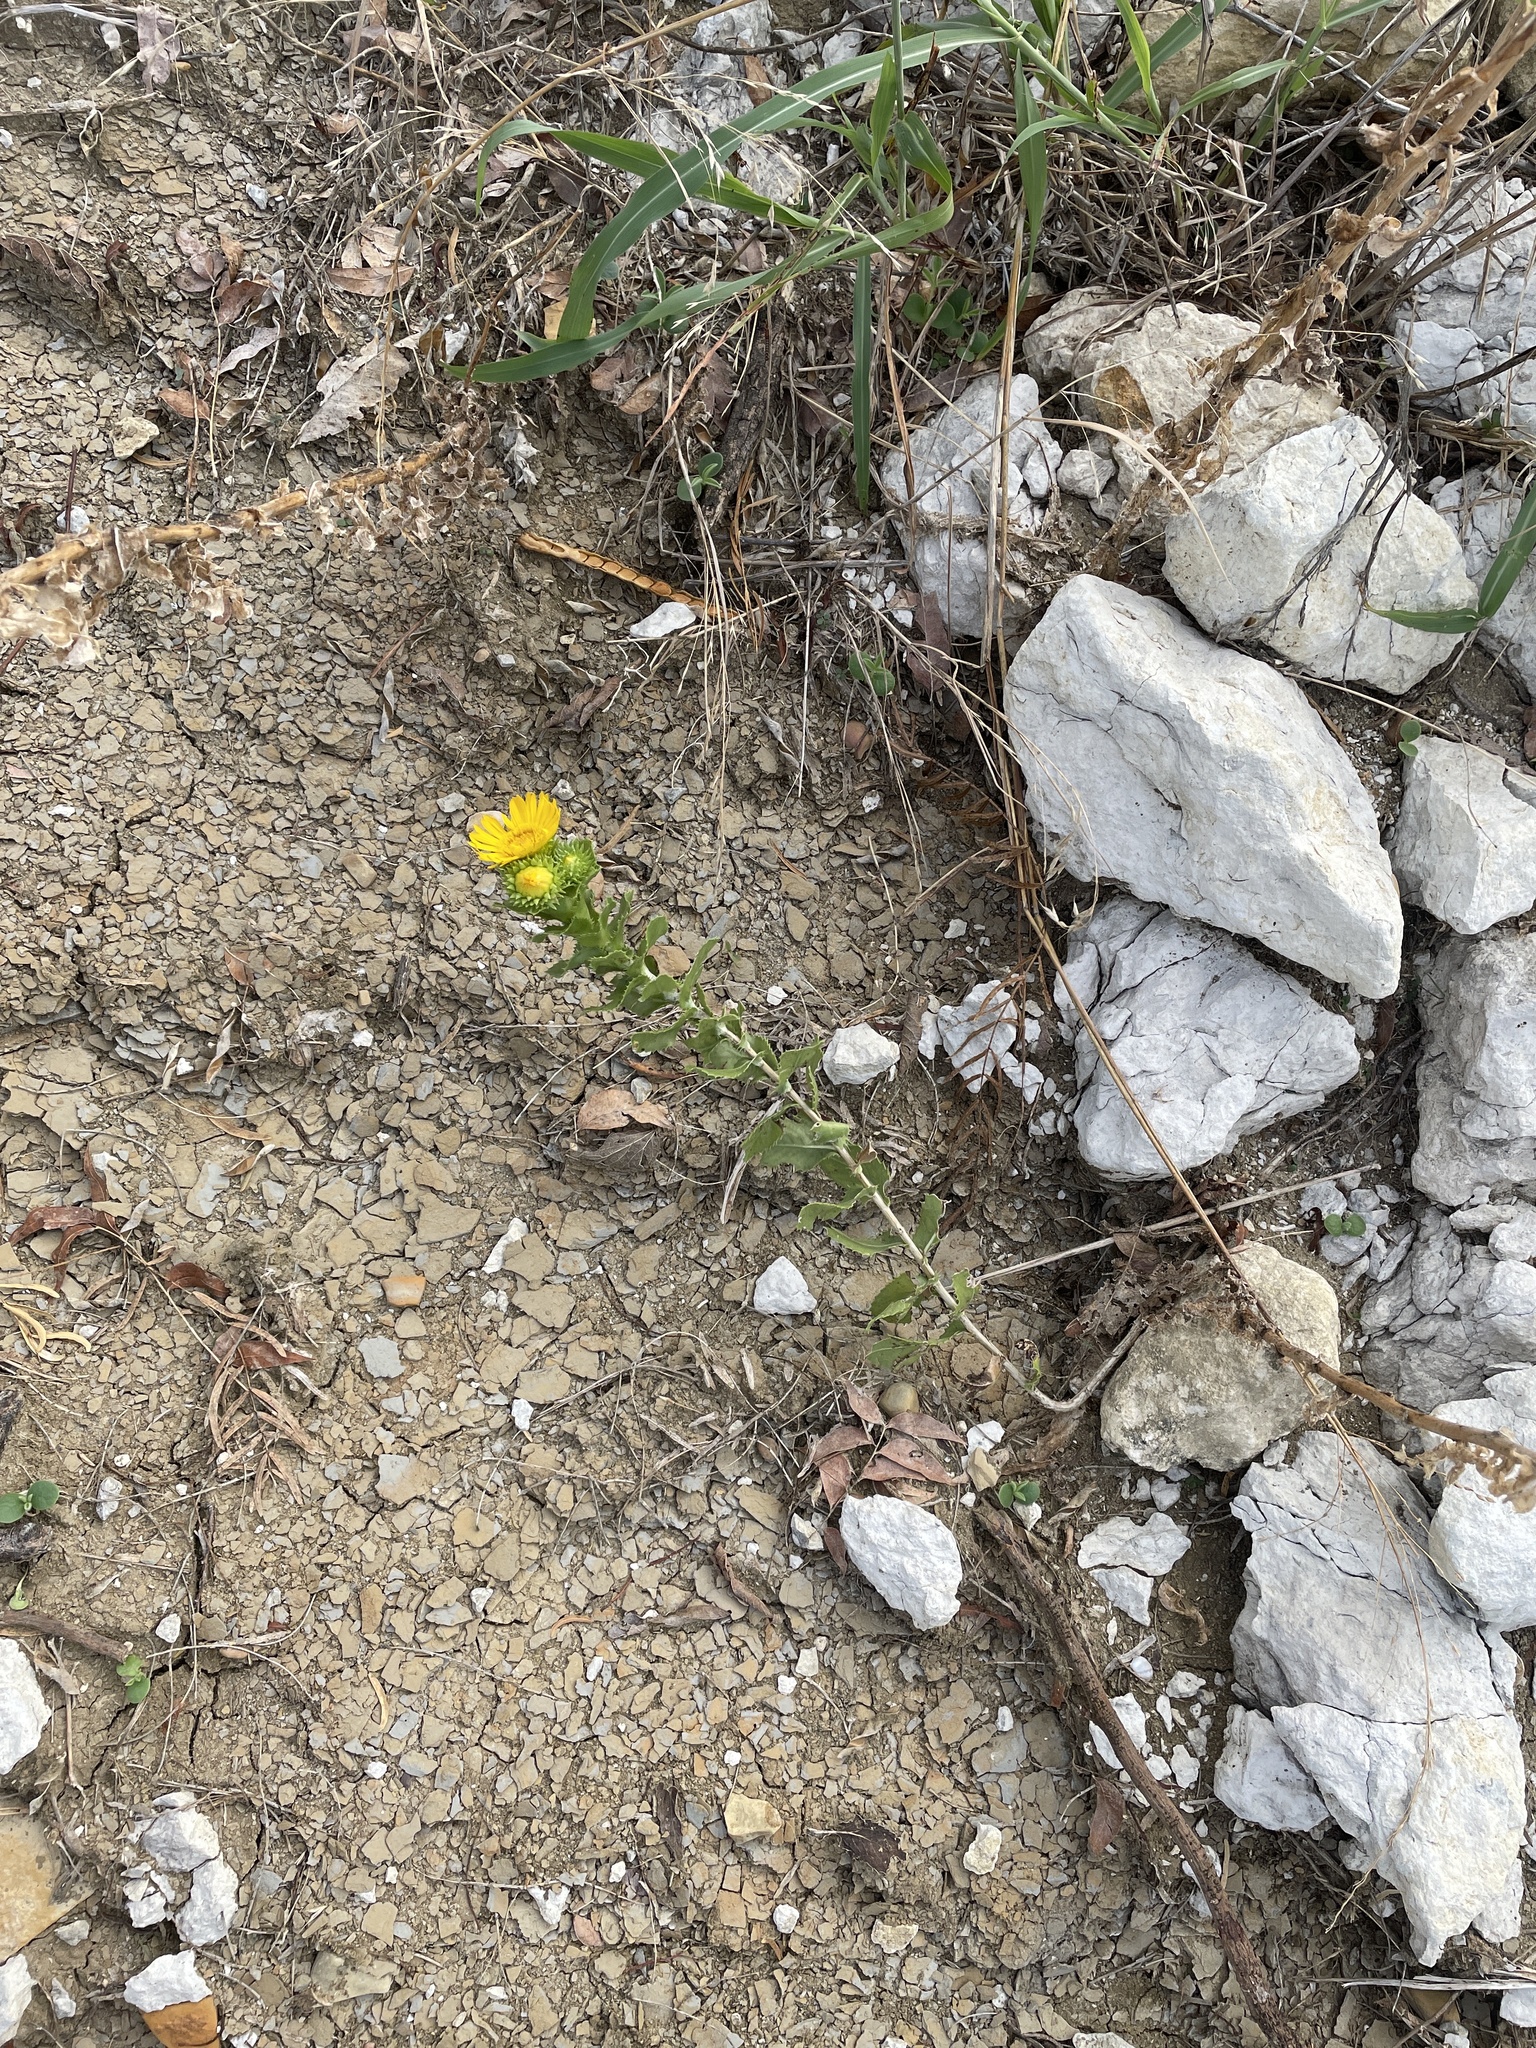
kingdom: Plantae
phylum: Tracheophyta
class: Magnoliopsida
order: Asterales
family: Asteraceae
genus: Grindelia
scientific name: Grindelia ciliata
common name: Goldenweed
